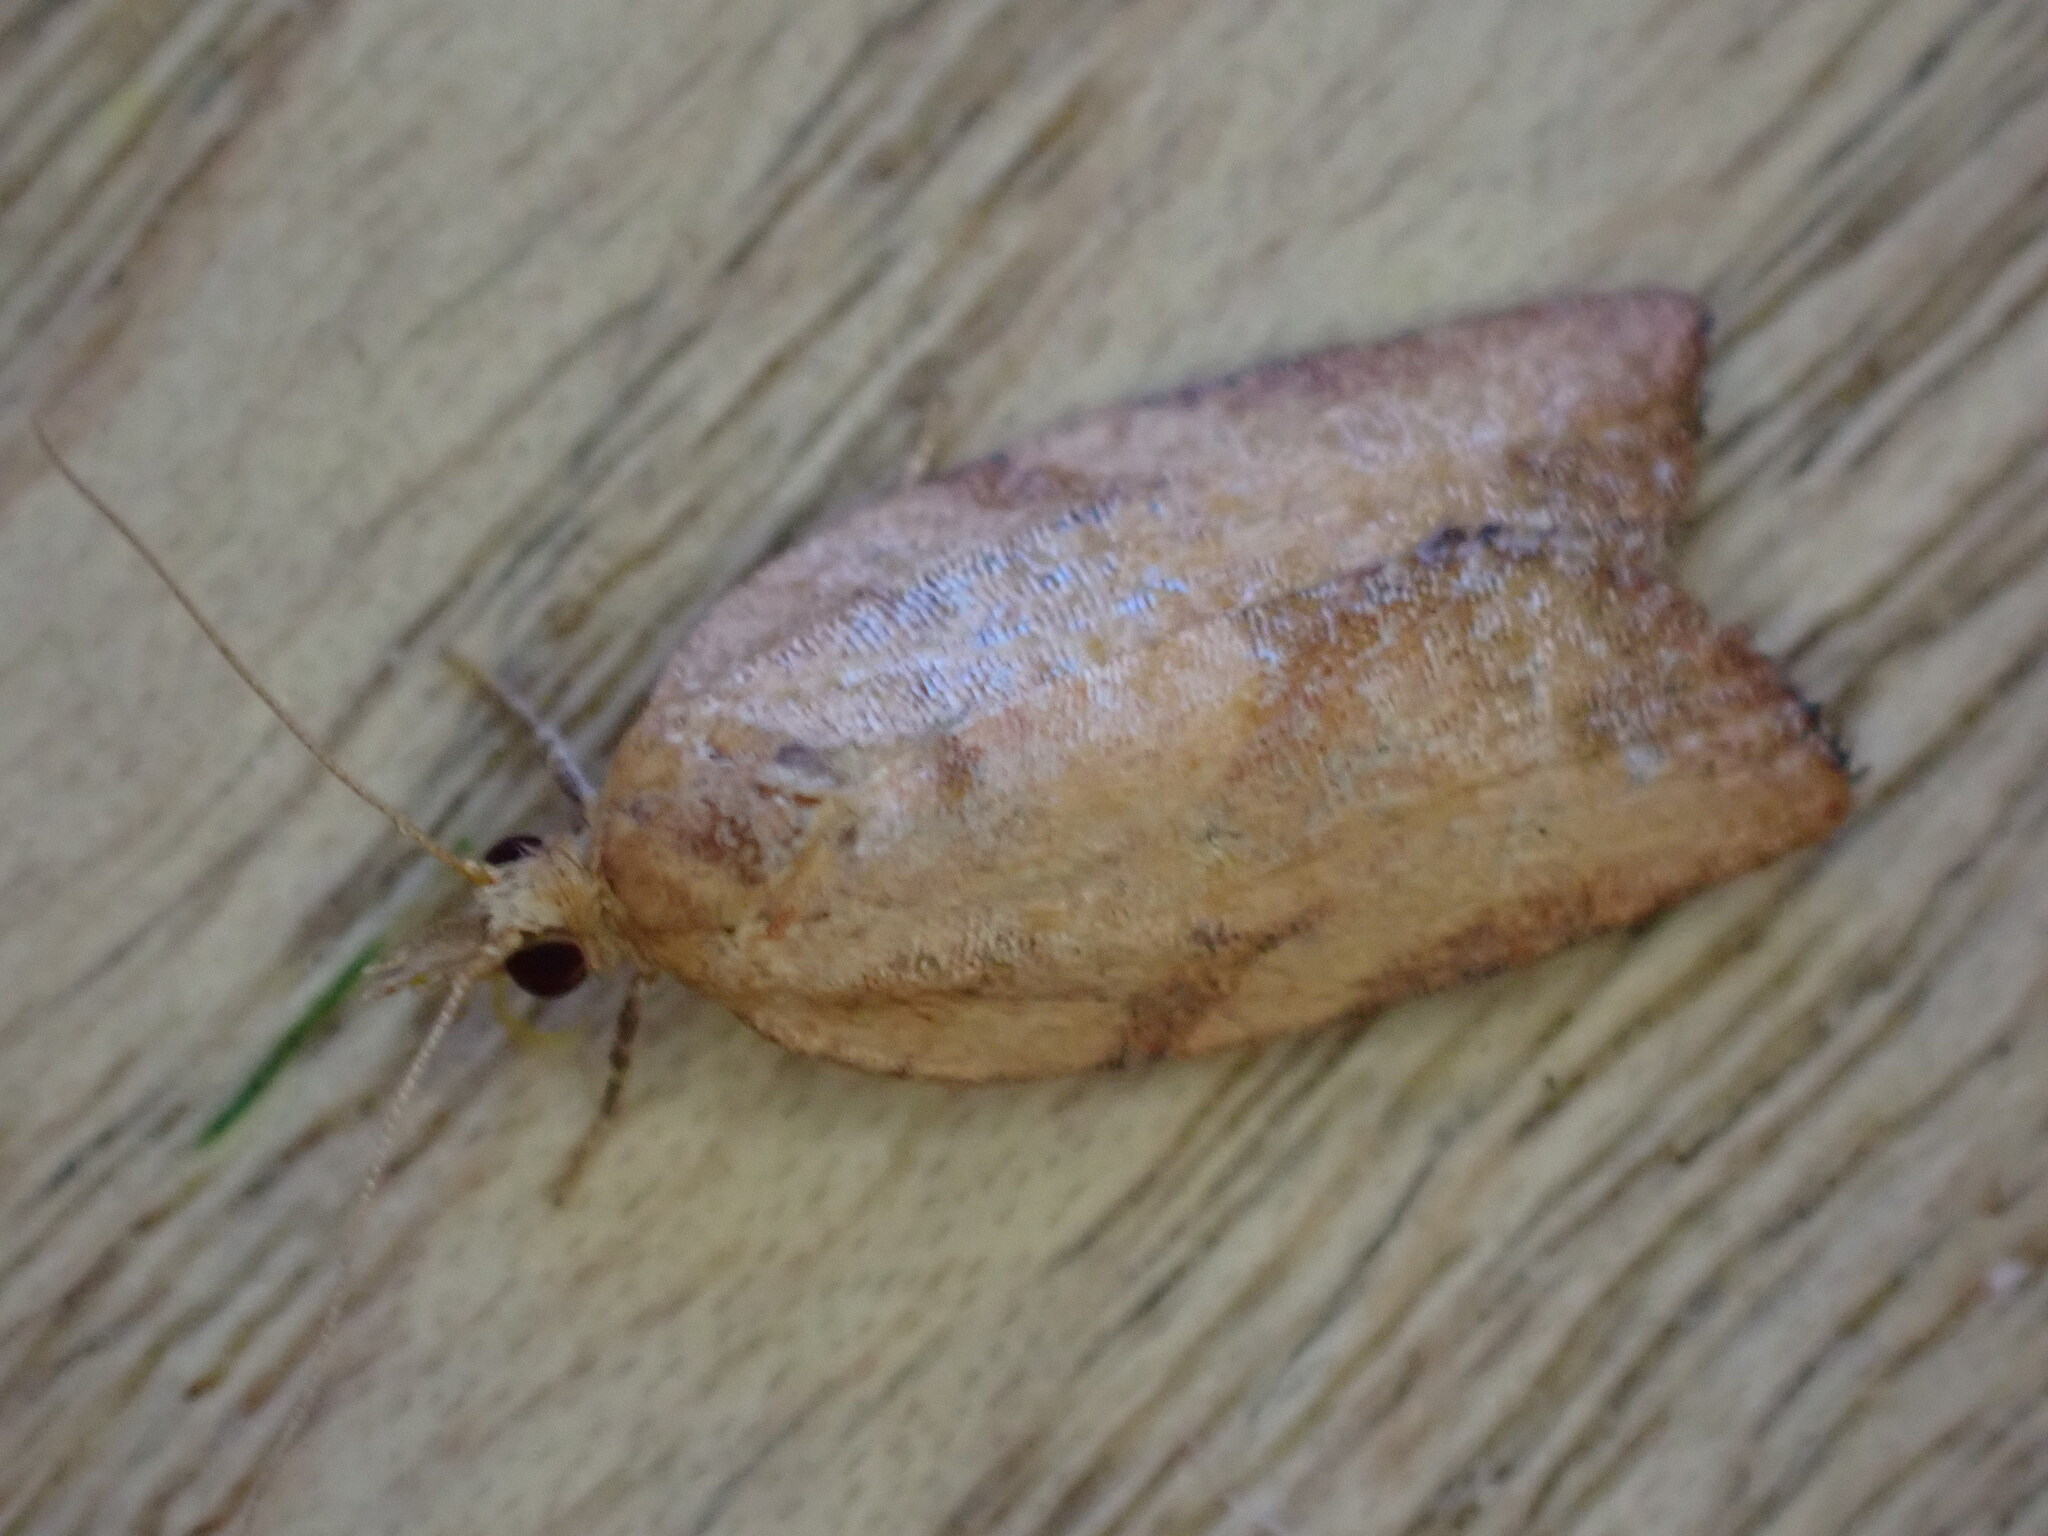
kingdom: Animalia
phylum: Arthropoda
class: Insecta
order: Lepidoptera
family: Tortricidae
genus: Epiphyas
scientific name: Epiphyas postvittana
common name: Light brown apple moth
